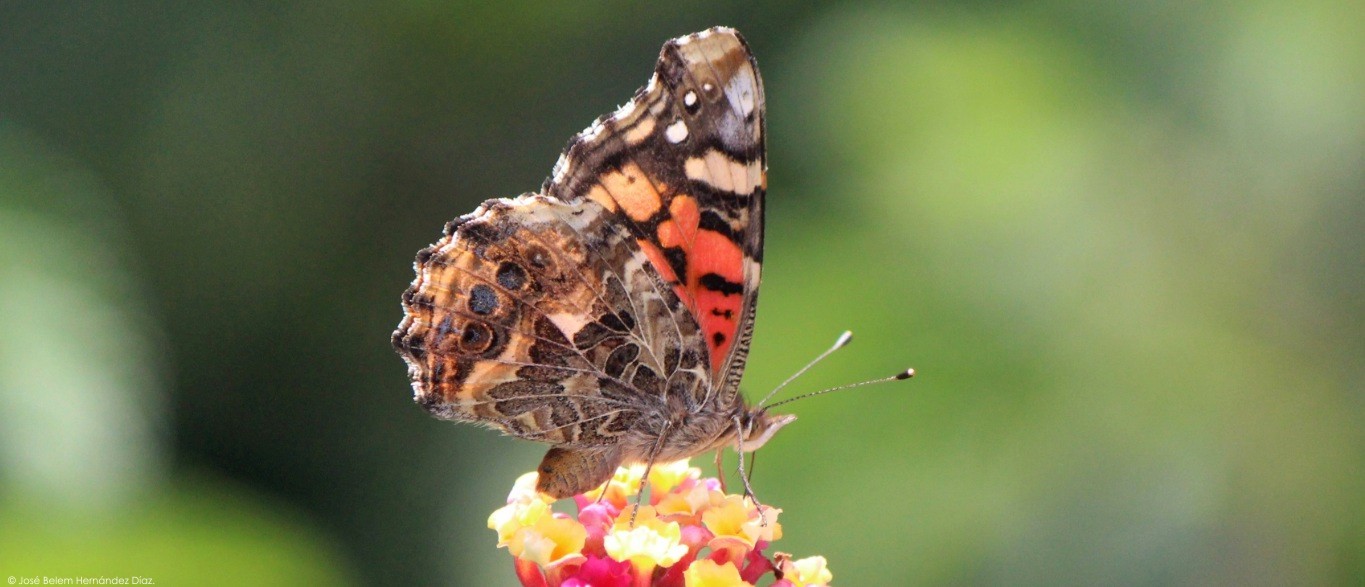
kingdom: Animalia
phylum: Arthropoda
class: Insecta
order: Lepidoptera
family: Nymphalidae
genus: Vanessa
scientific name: Vanessa annabella
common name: West coast lady
